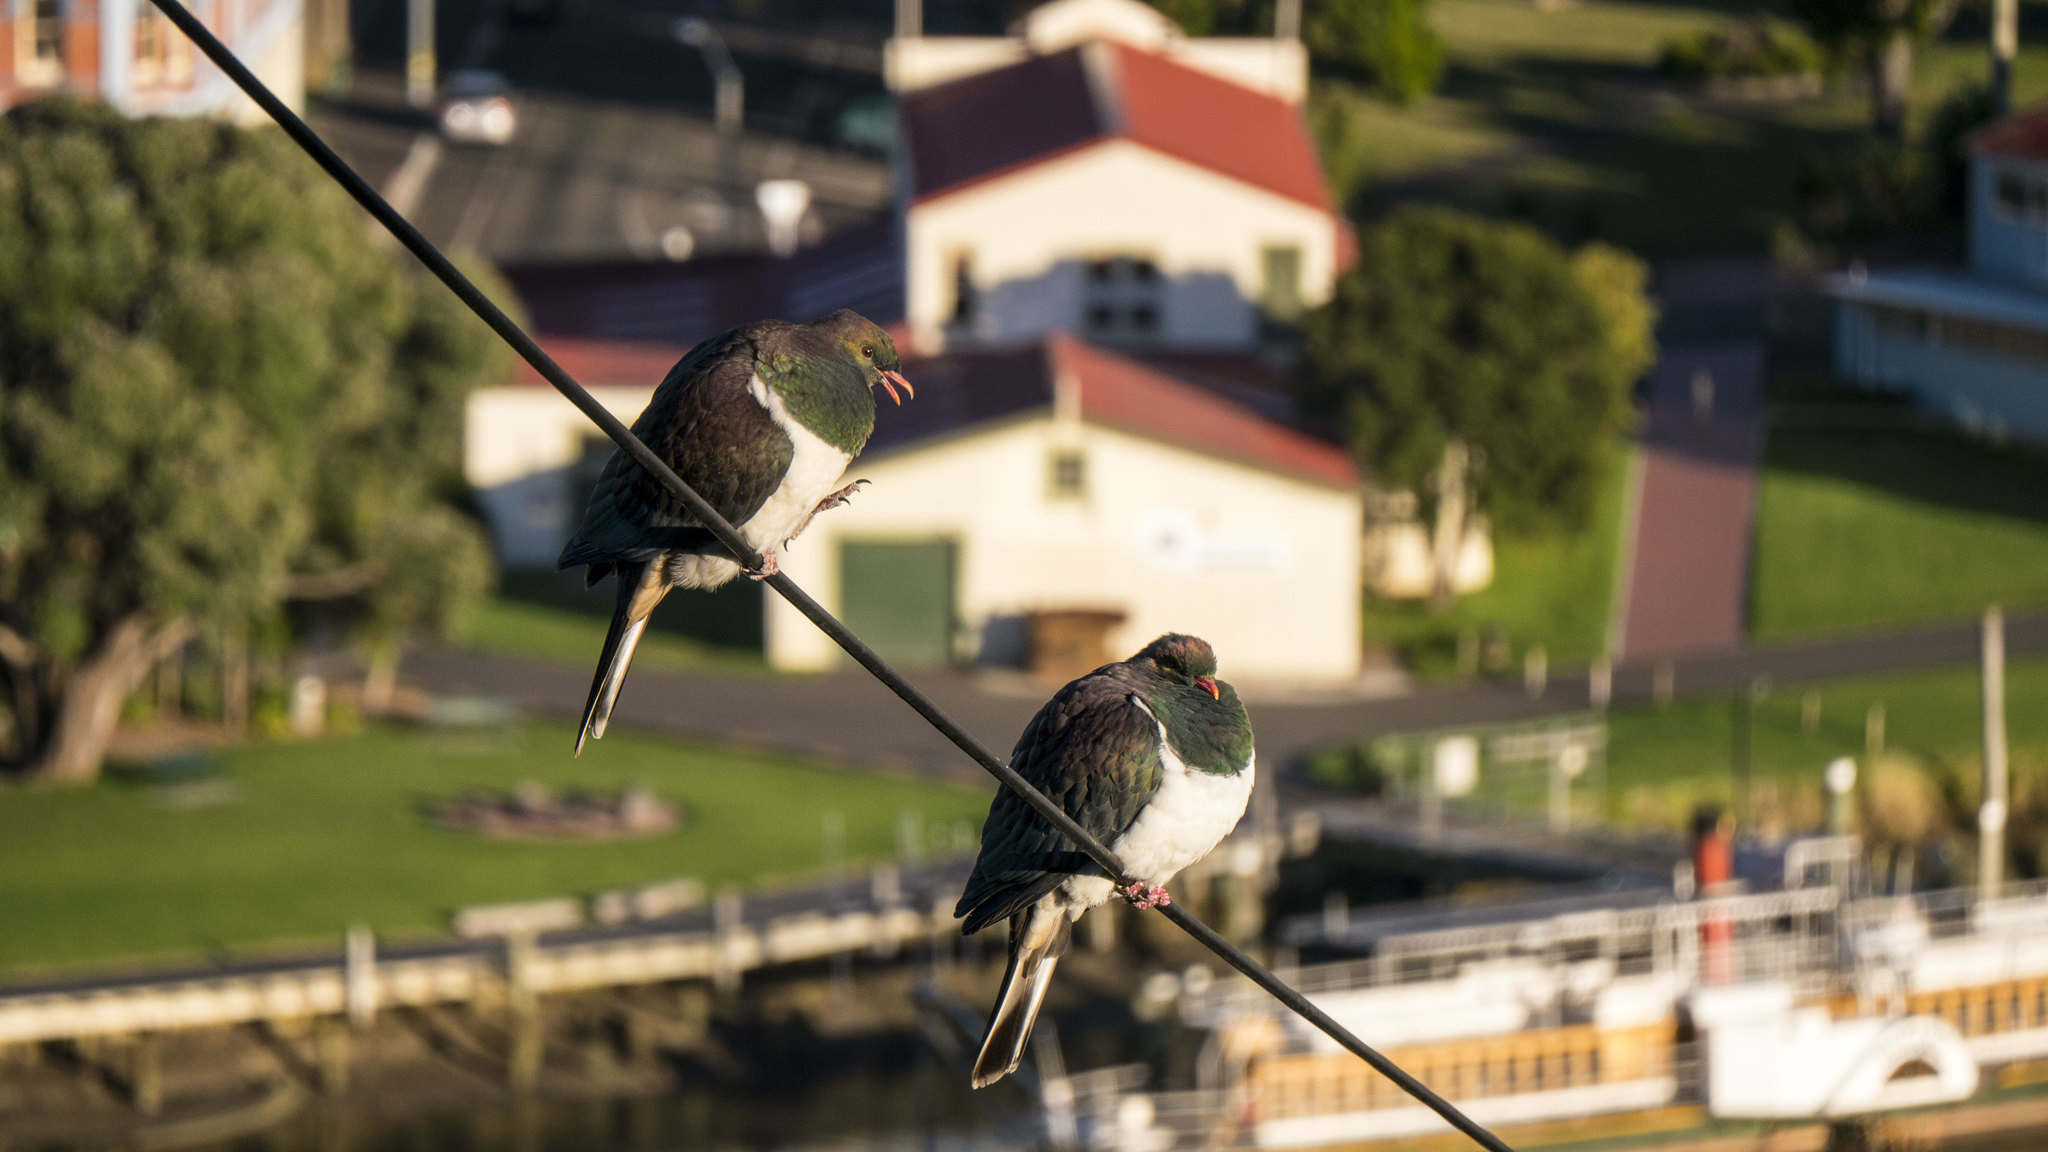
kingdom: Animalia
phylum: Chordata
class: Aves
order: Columbiformes
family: Columbidae
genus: Hemiphaga
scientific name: Hemiphaga novaeseelandiae
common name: New zealand pigeon
